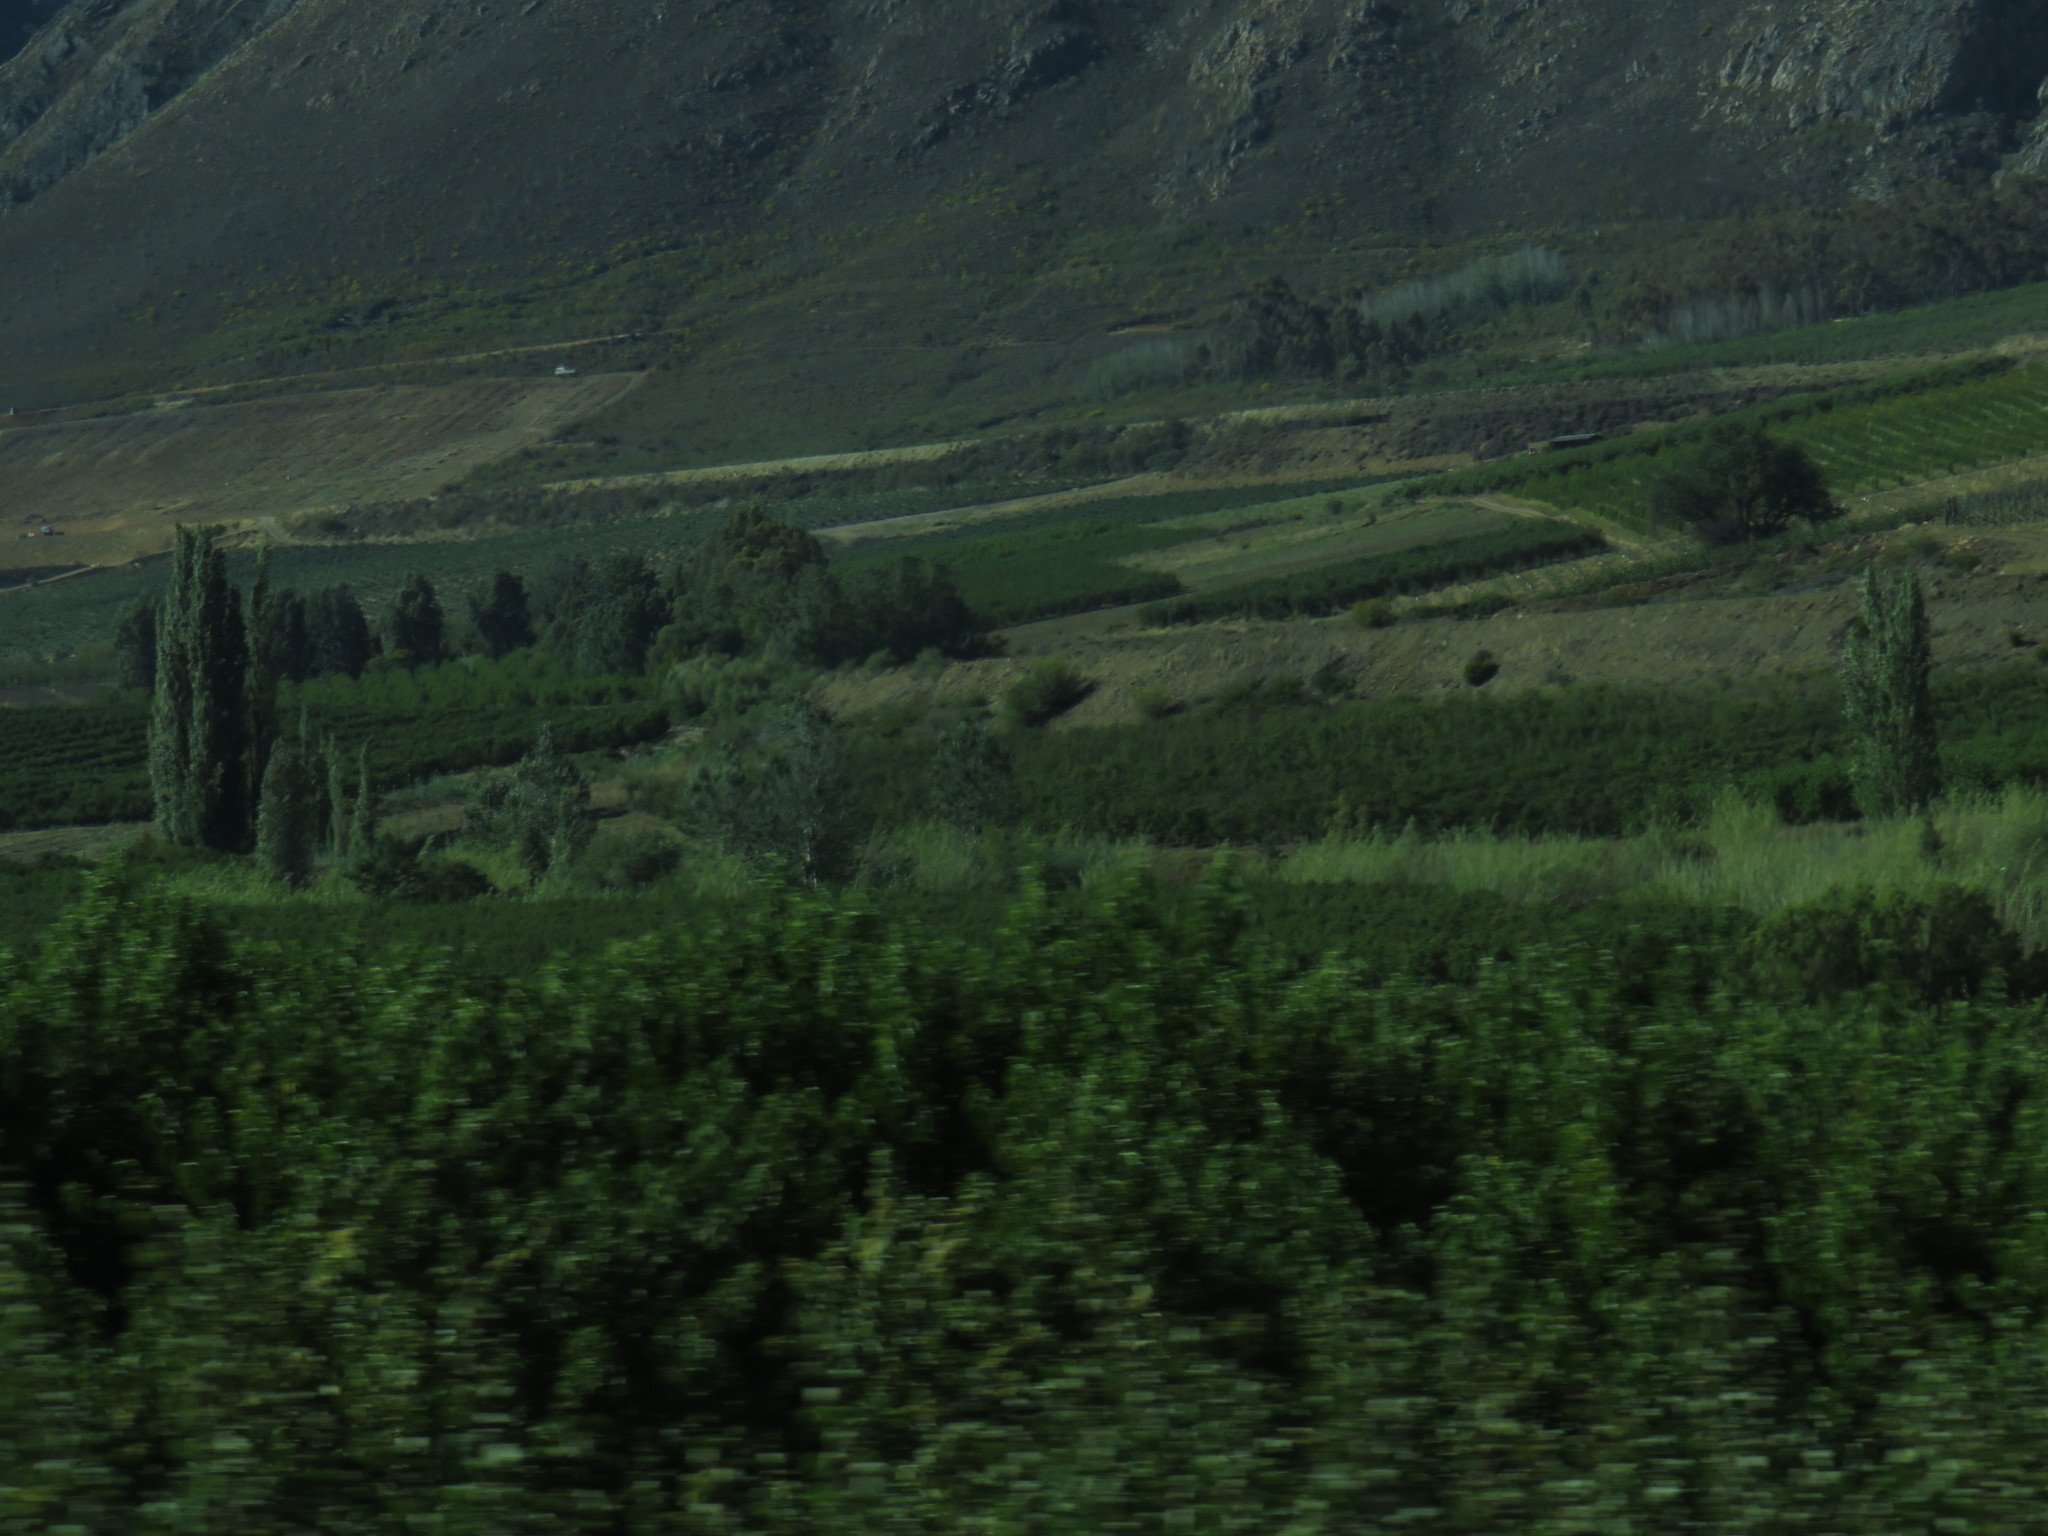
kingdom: Plantae
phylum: Tracheophyta
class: Magnoliopsida
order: Malpighiales
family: Salicaceae
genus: Populus
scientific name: Populus nigra
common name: Black poplar
